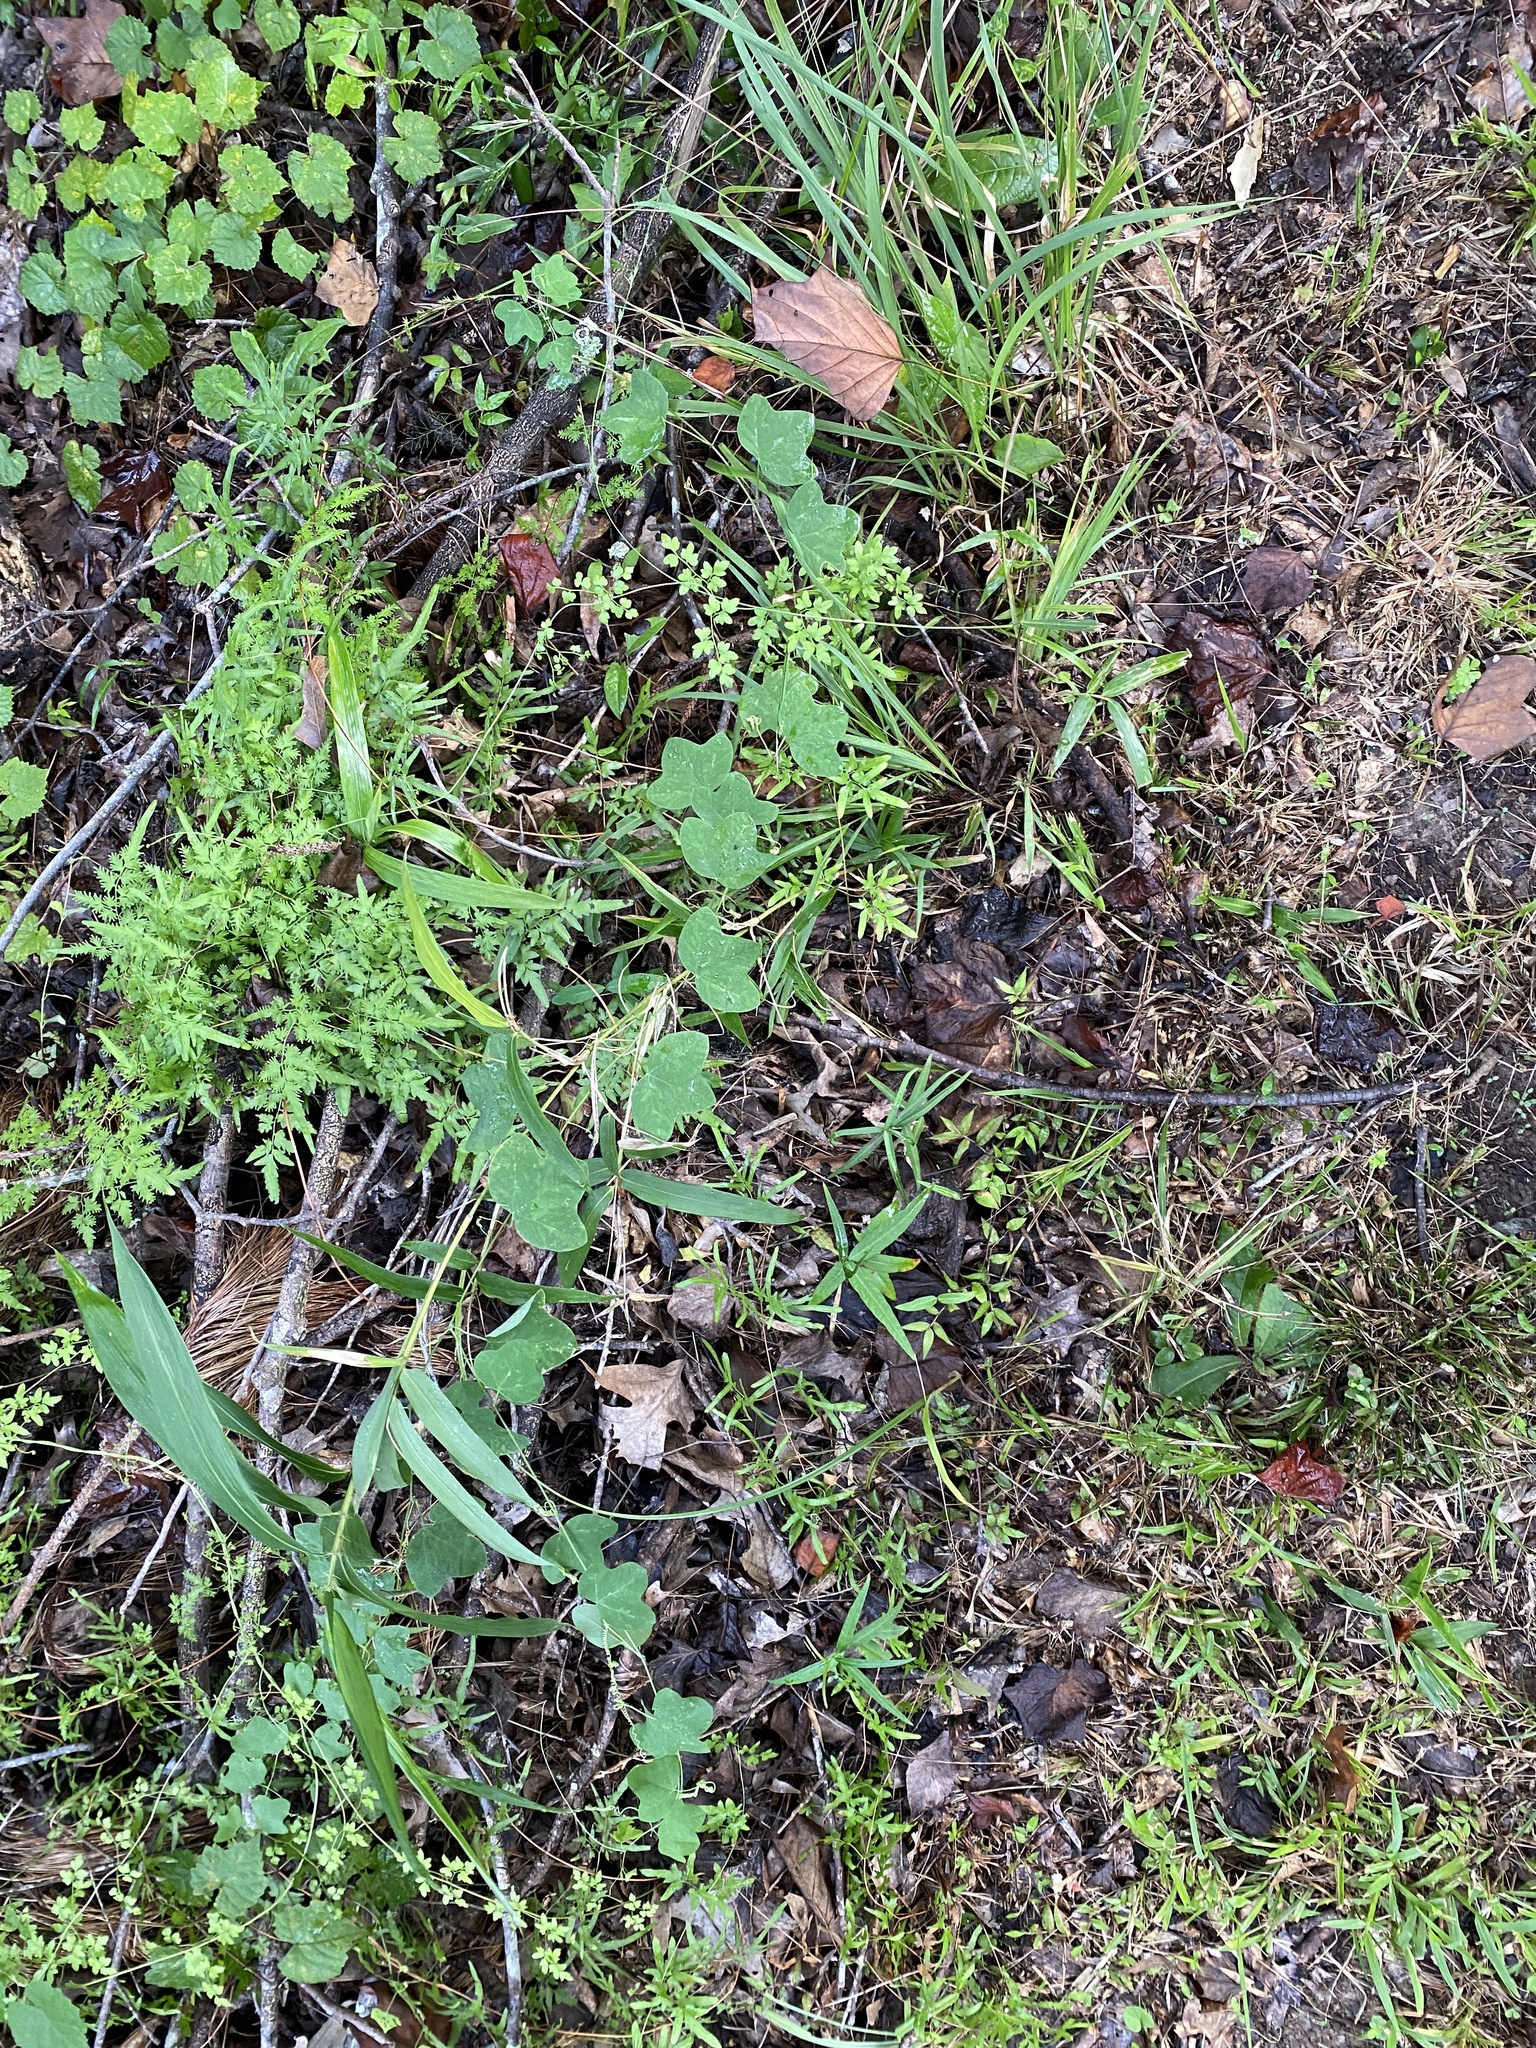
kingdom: Plantae
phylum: Tracheophyta
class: Magnoliopsida
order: Malpighiales
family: Passifloraceae
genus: Passiflora
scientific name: Passiflora lutea
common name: Yellow passionflower
